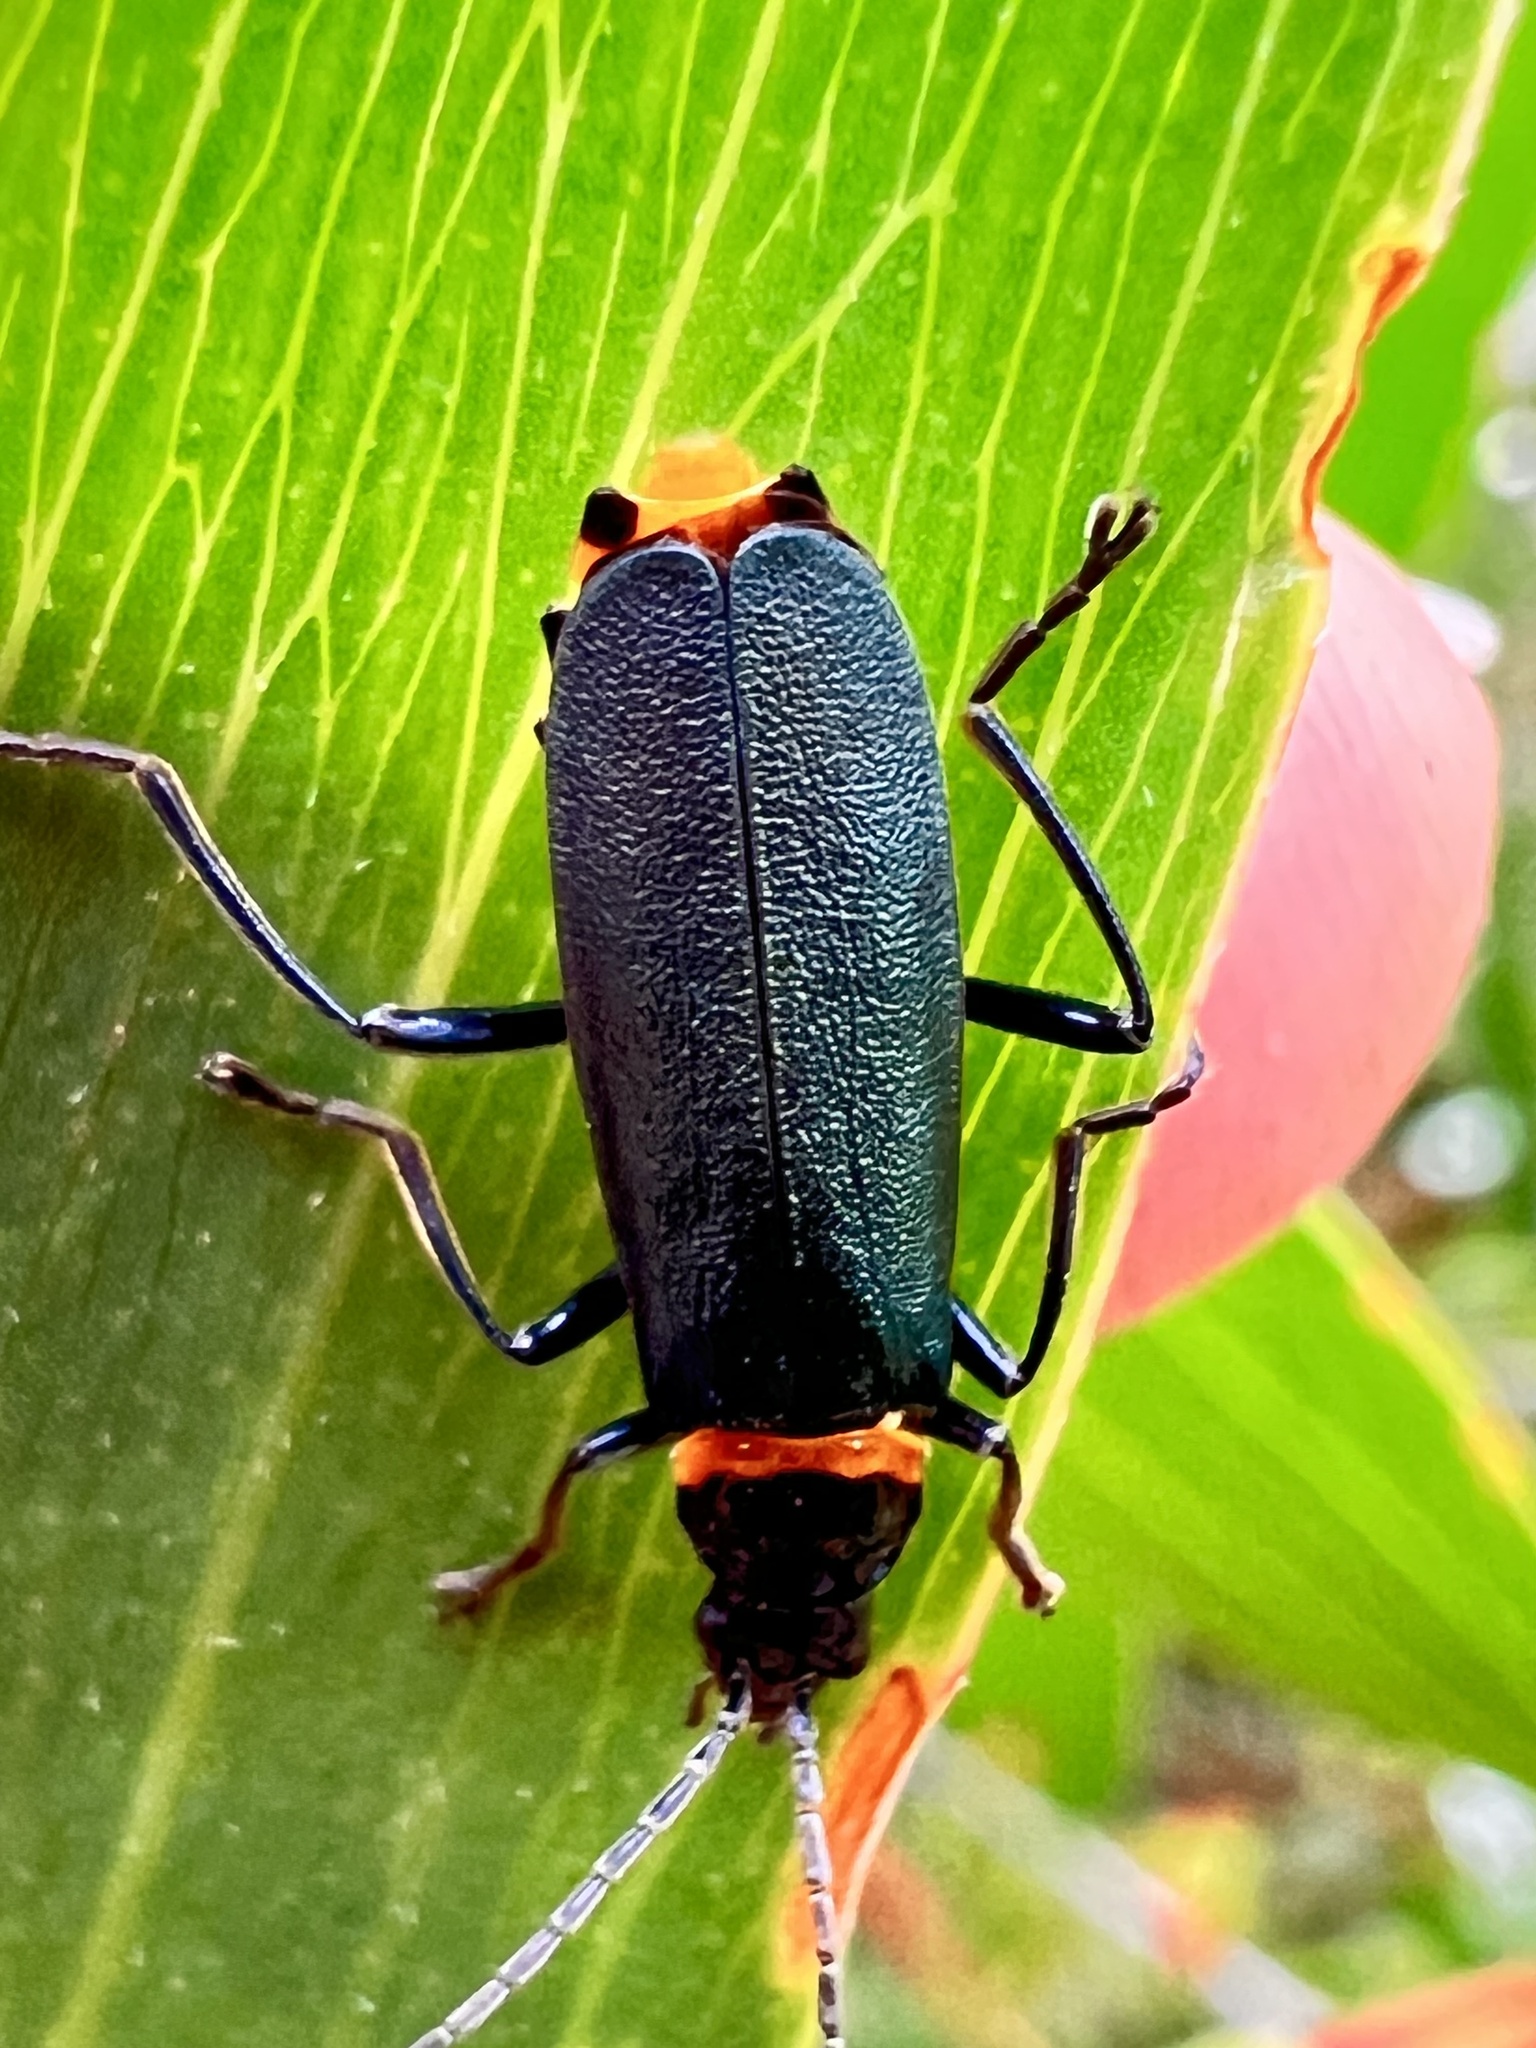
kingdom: Animalia
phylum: Arthropoda
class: Insecta
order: Coleoptera
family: Cantharidae
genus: Chauliognathus
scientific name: Chauliognathus
